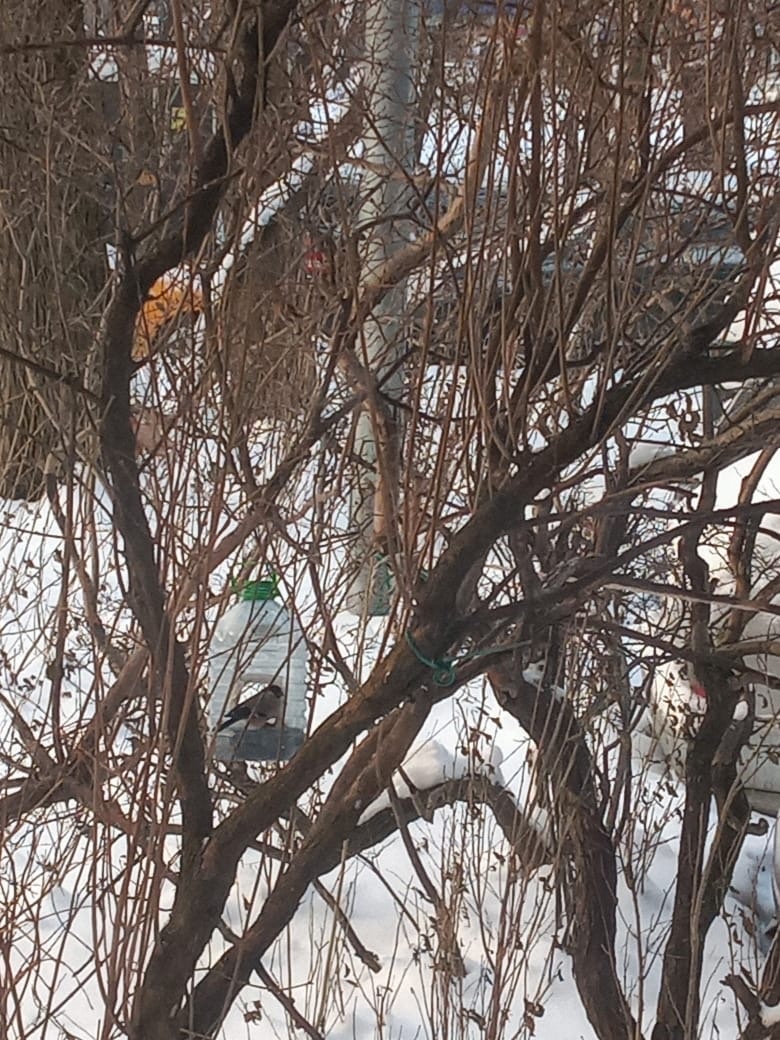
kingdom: Animalia
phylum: Chordata
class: Aves
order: Passeriformes
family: Fringillidae
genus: Pyrrhula
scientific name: Pyrrhula pyrrhula
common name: Eurasian bullfinch
